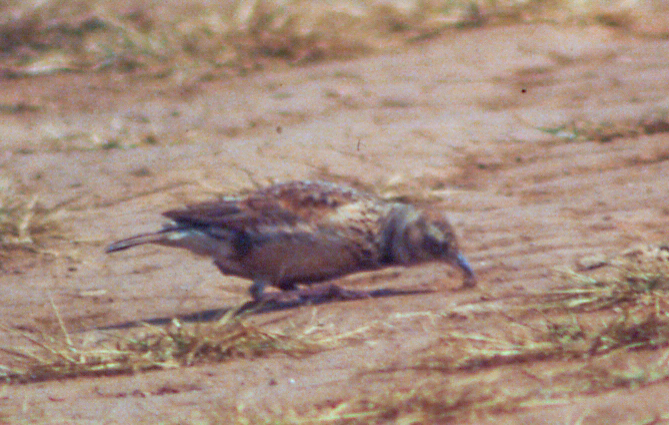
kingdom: Animalia
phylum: Chordata
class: Aves
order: Passeriformes
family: Alaudidae
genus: Mirafra
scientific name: Mirafra africana
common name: Rufous-naped lark
